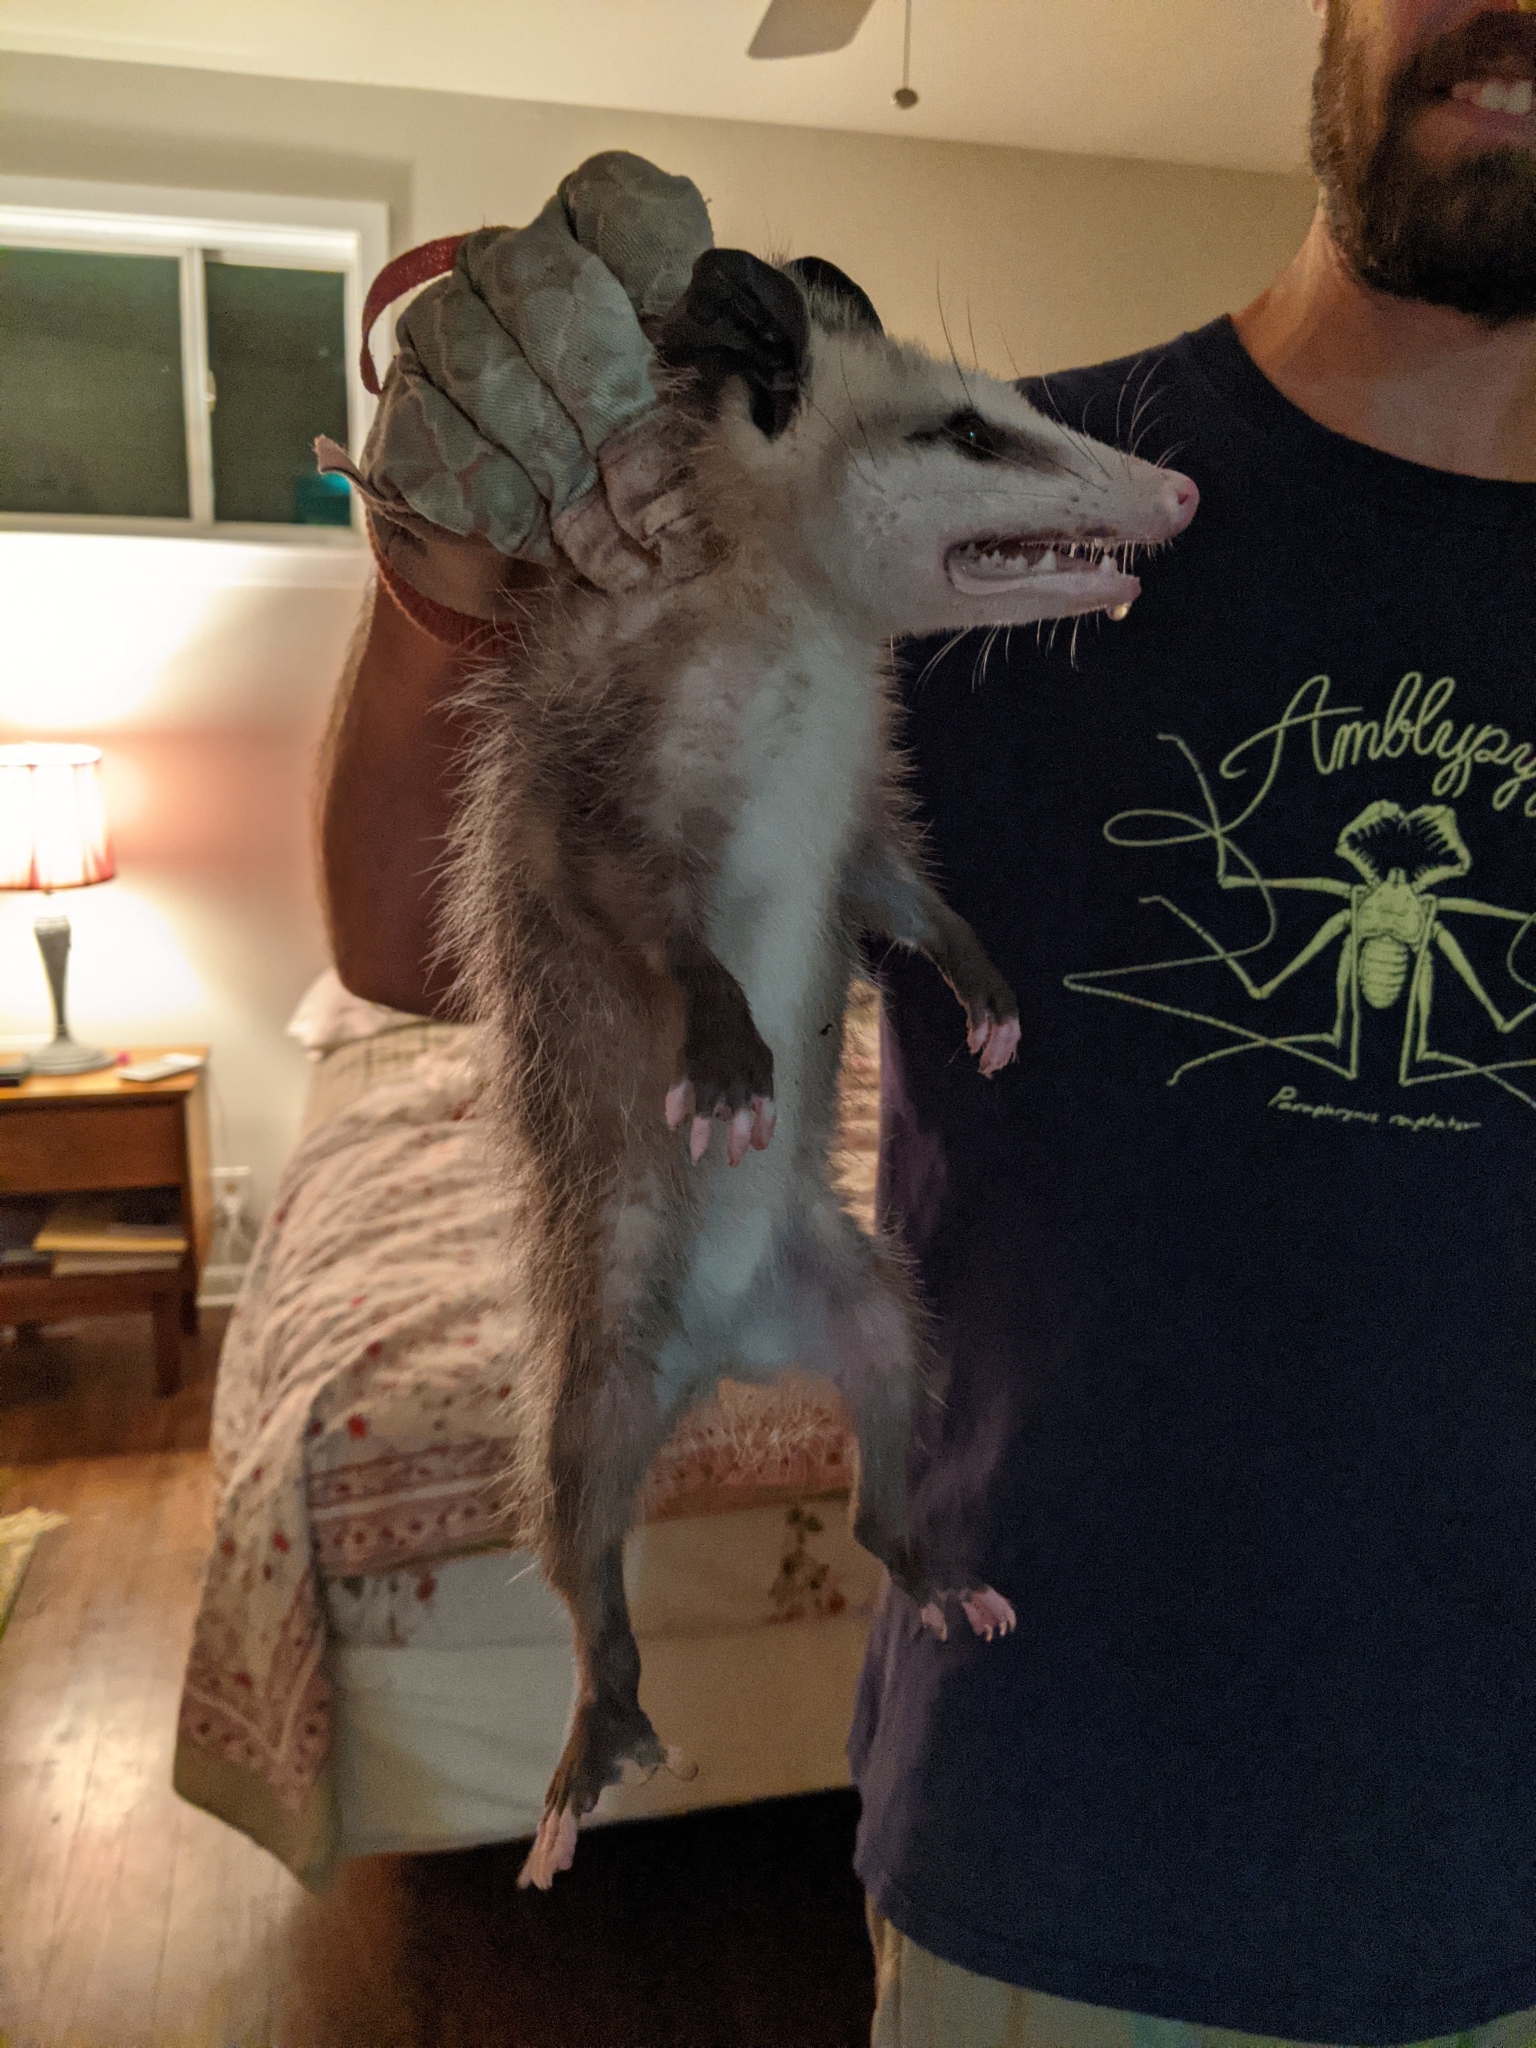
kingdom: Animalia
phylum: Chordata
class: Mammalia
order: Didelphimorphia
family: Didelphidae
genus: Didelphis
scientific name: Didelphis virginiana
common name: Virginia opossum
